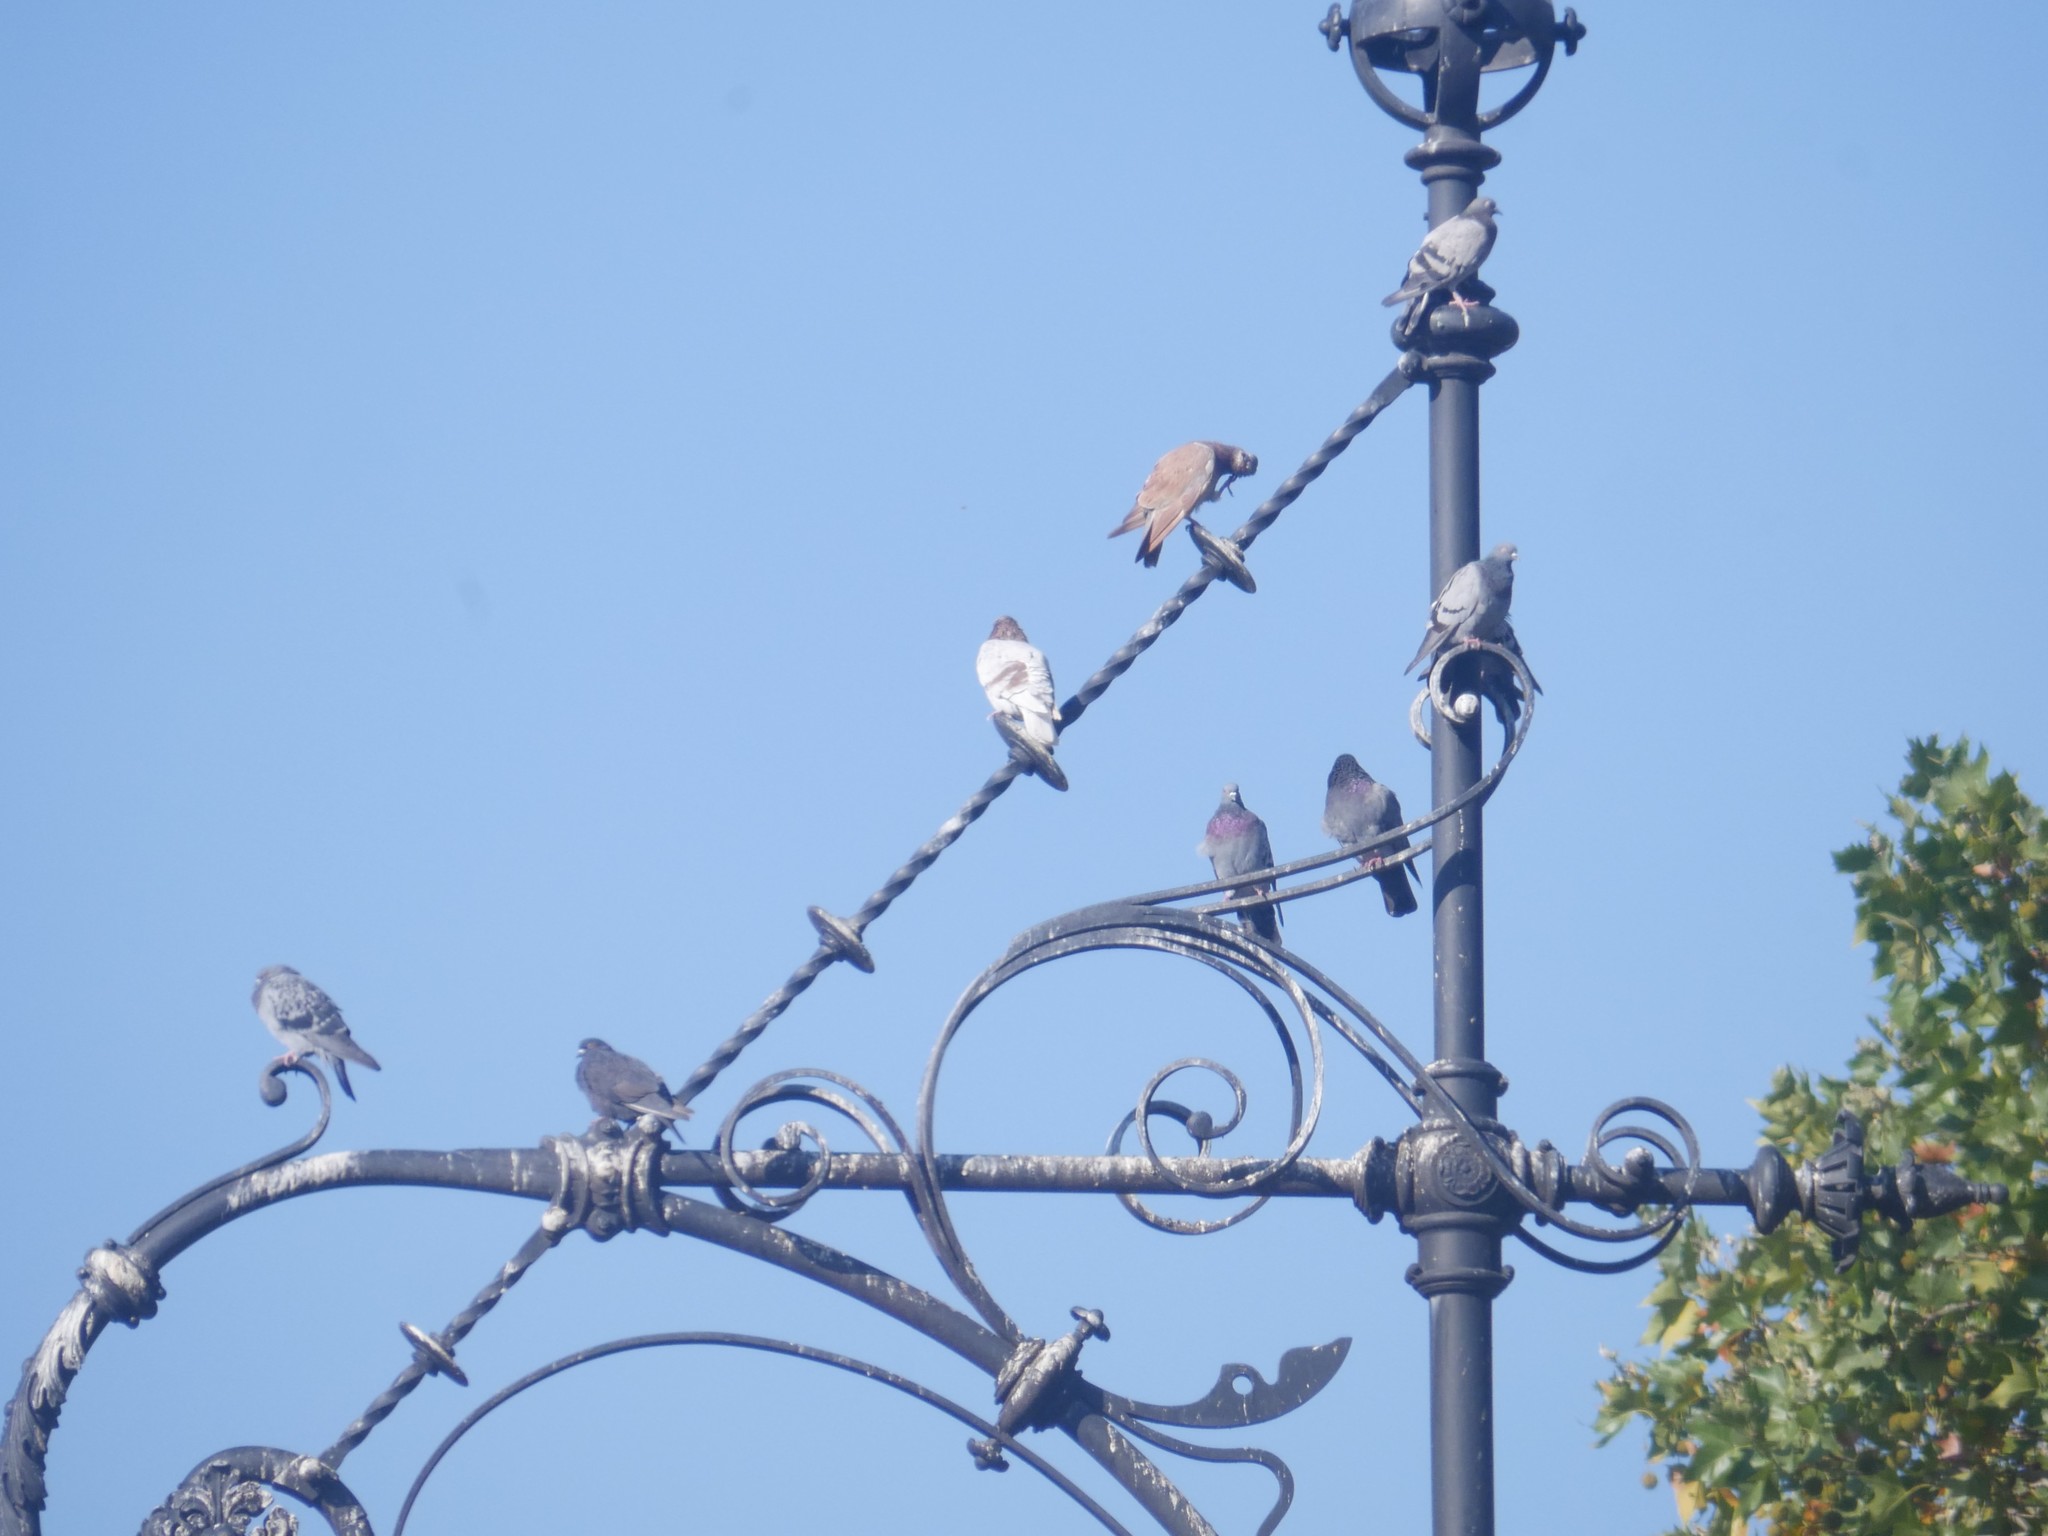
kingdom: Animalia
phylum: Chordata
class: Aves
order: Columbiformes
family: Columbidae
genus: Columba
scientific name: Columba livia
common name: Rock pigeon
